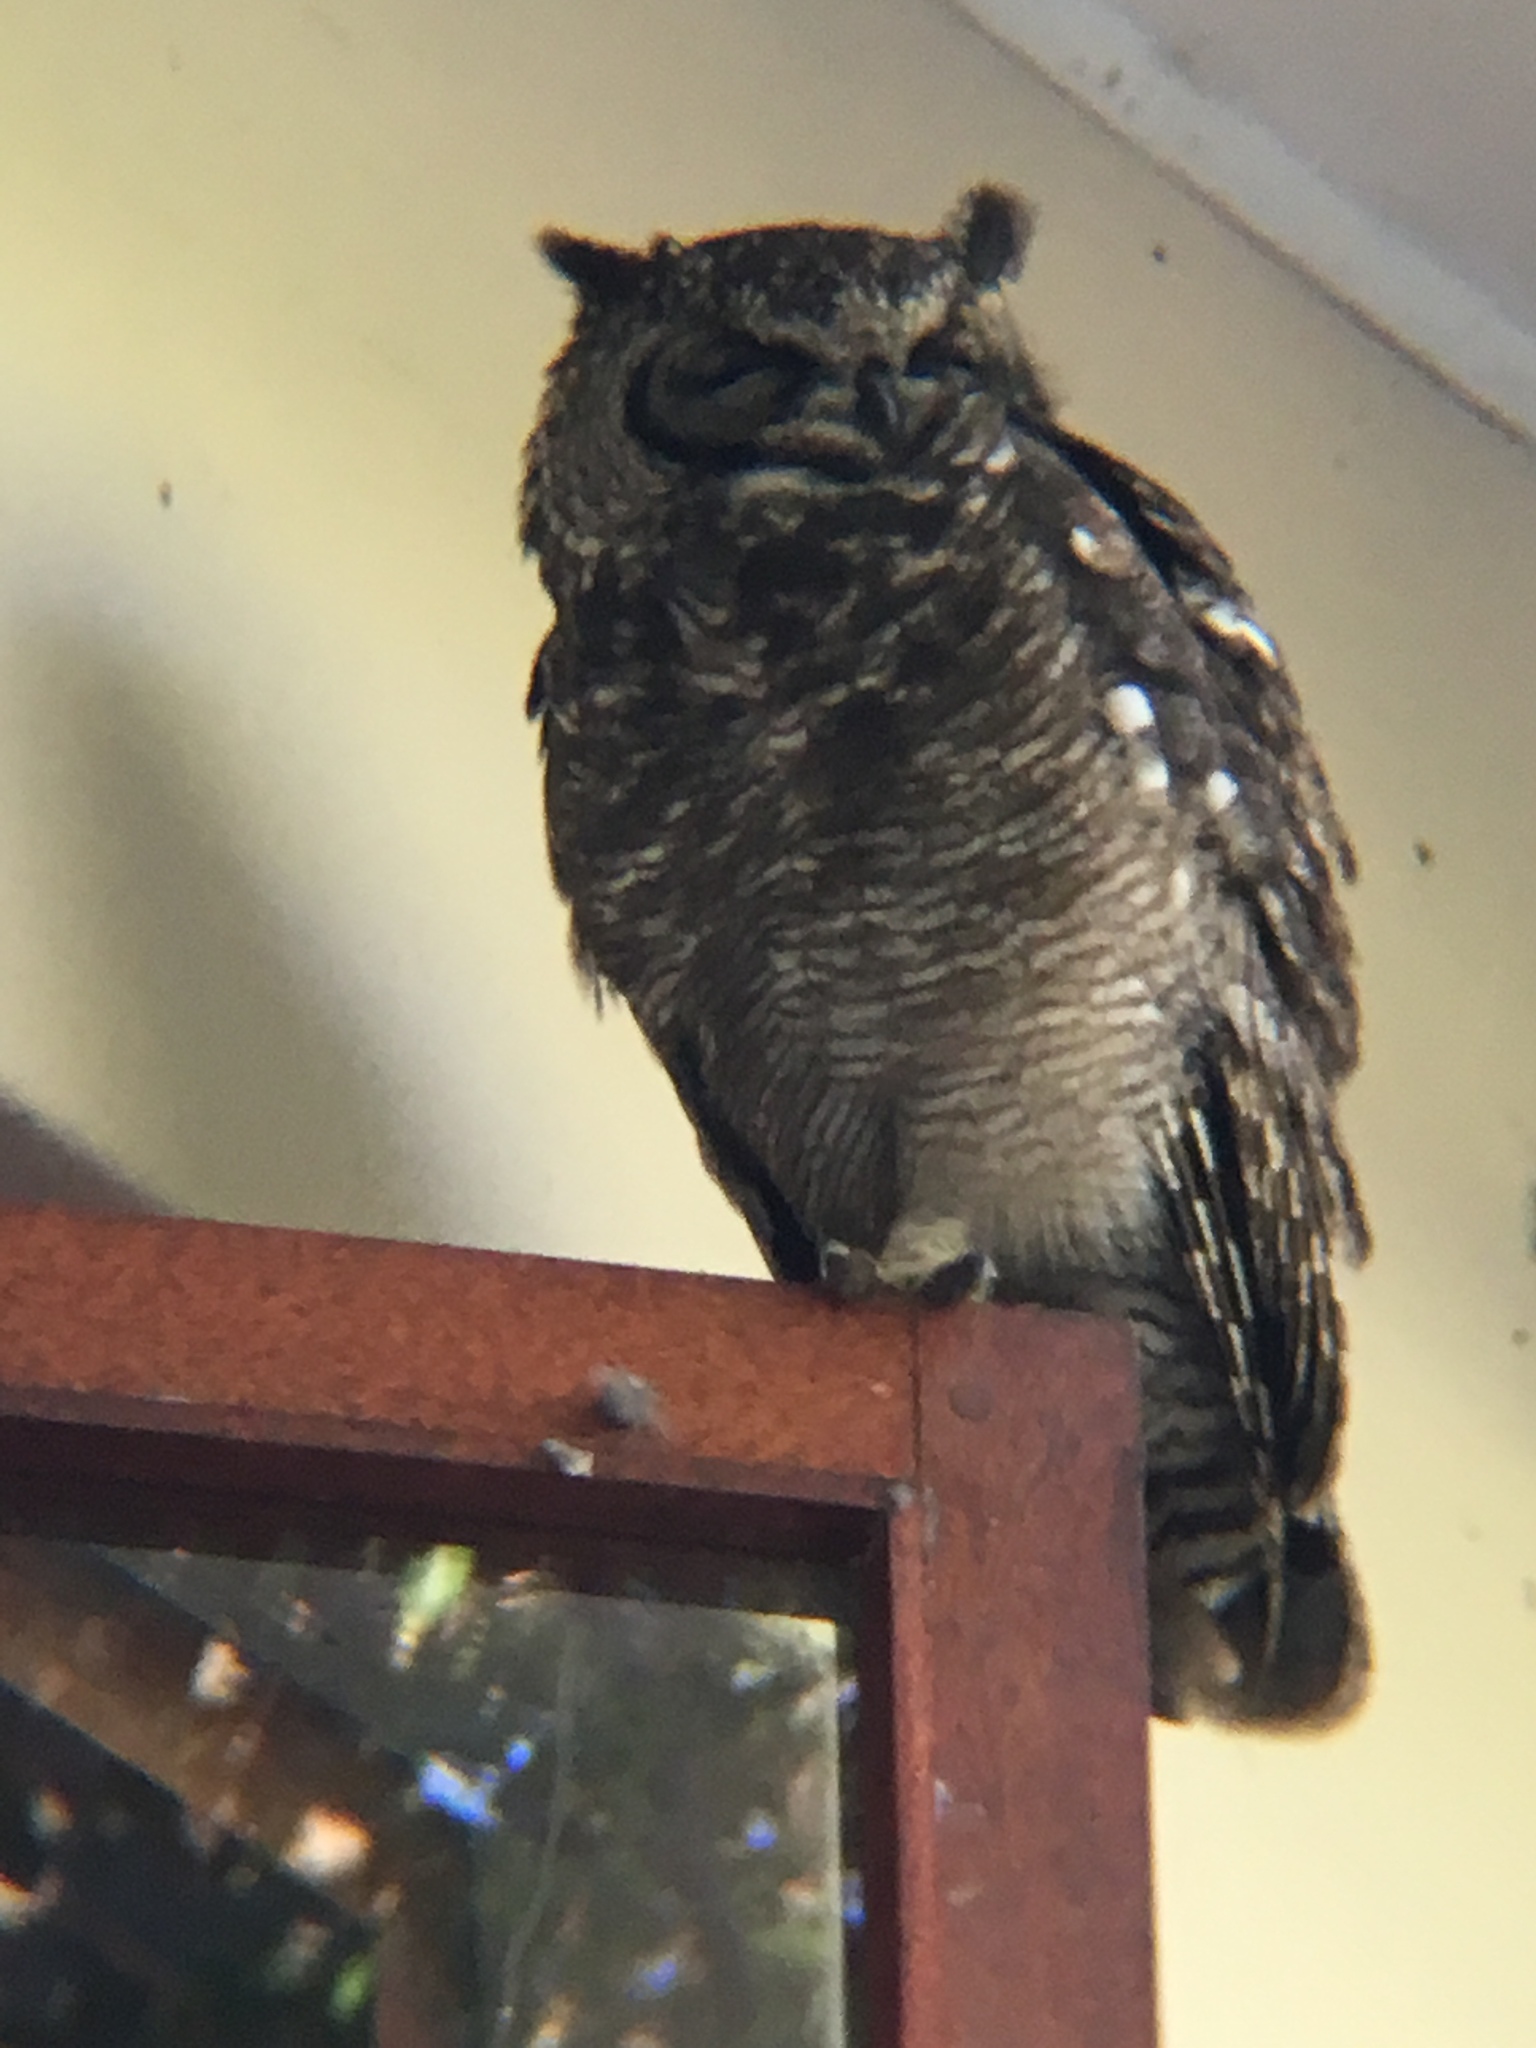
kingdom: Animalia
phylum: Chordata
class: Aves
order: Strigiformes
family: Strigidae
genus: Bubo
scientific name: Bubo africanus
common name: Spotted eagle-owl
